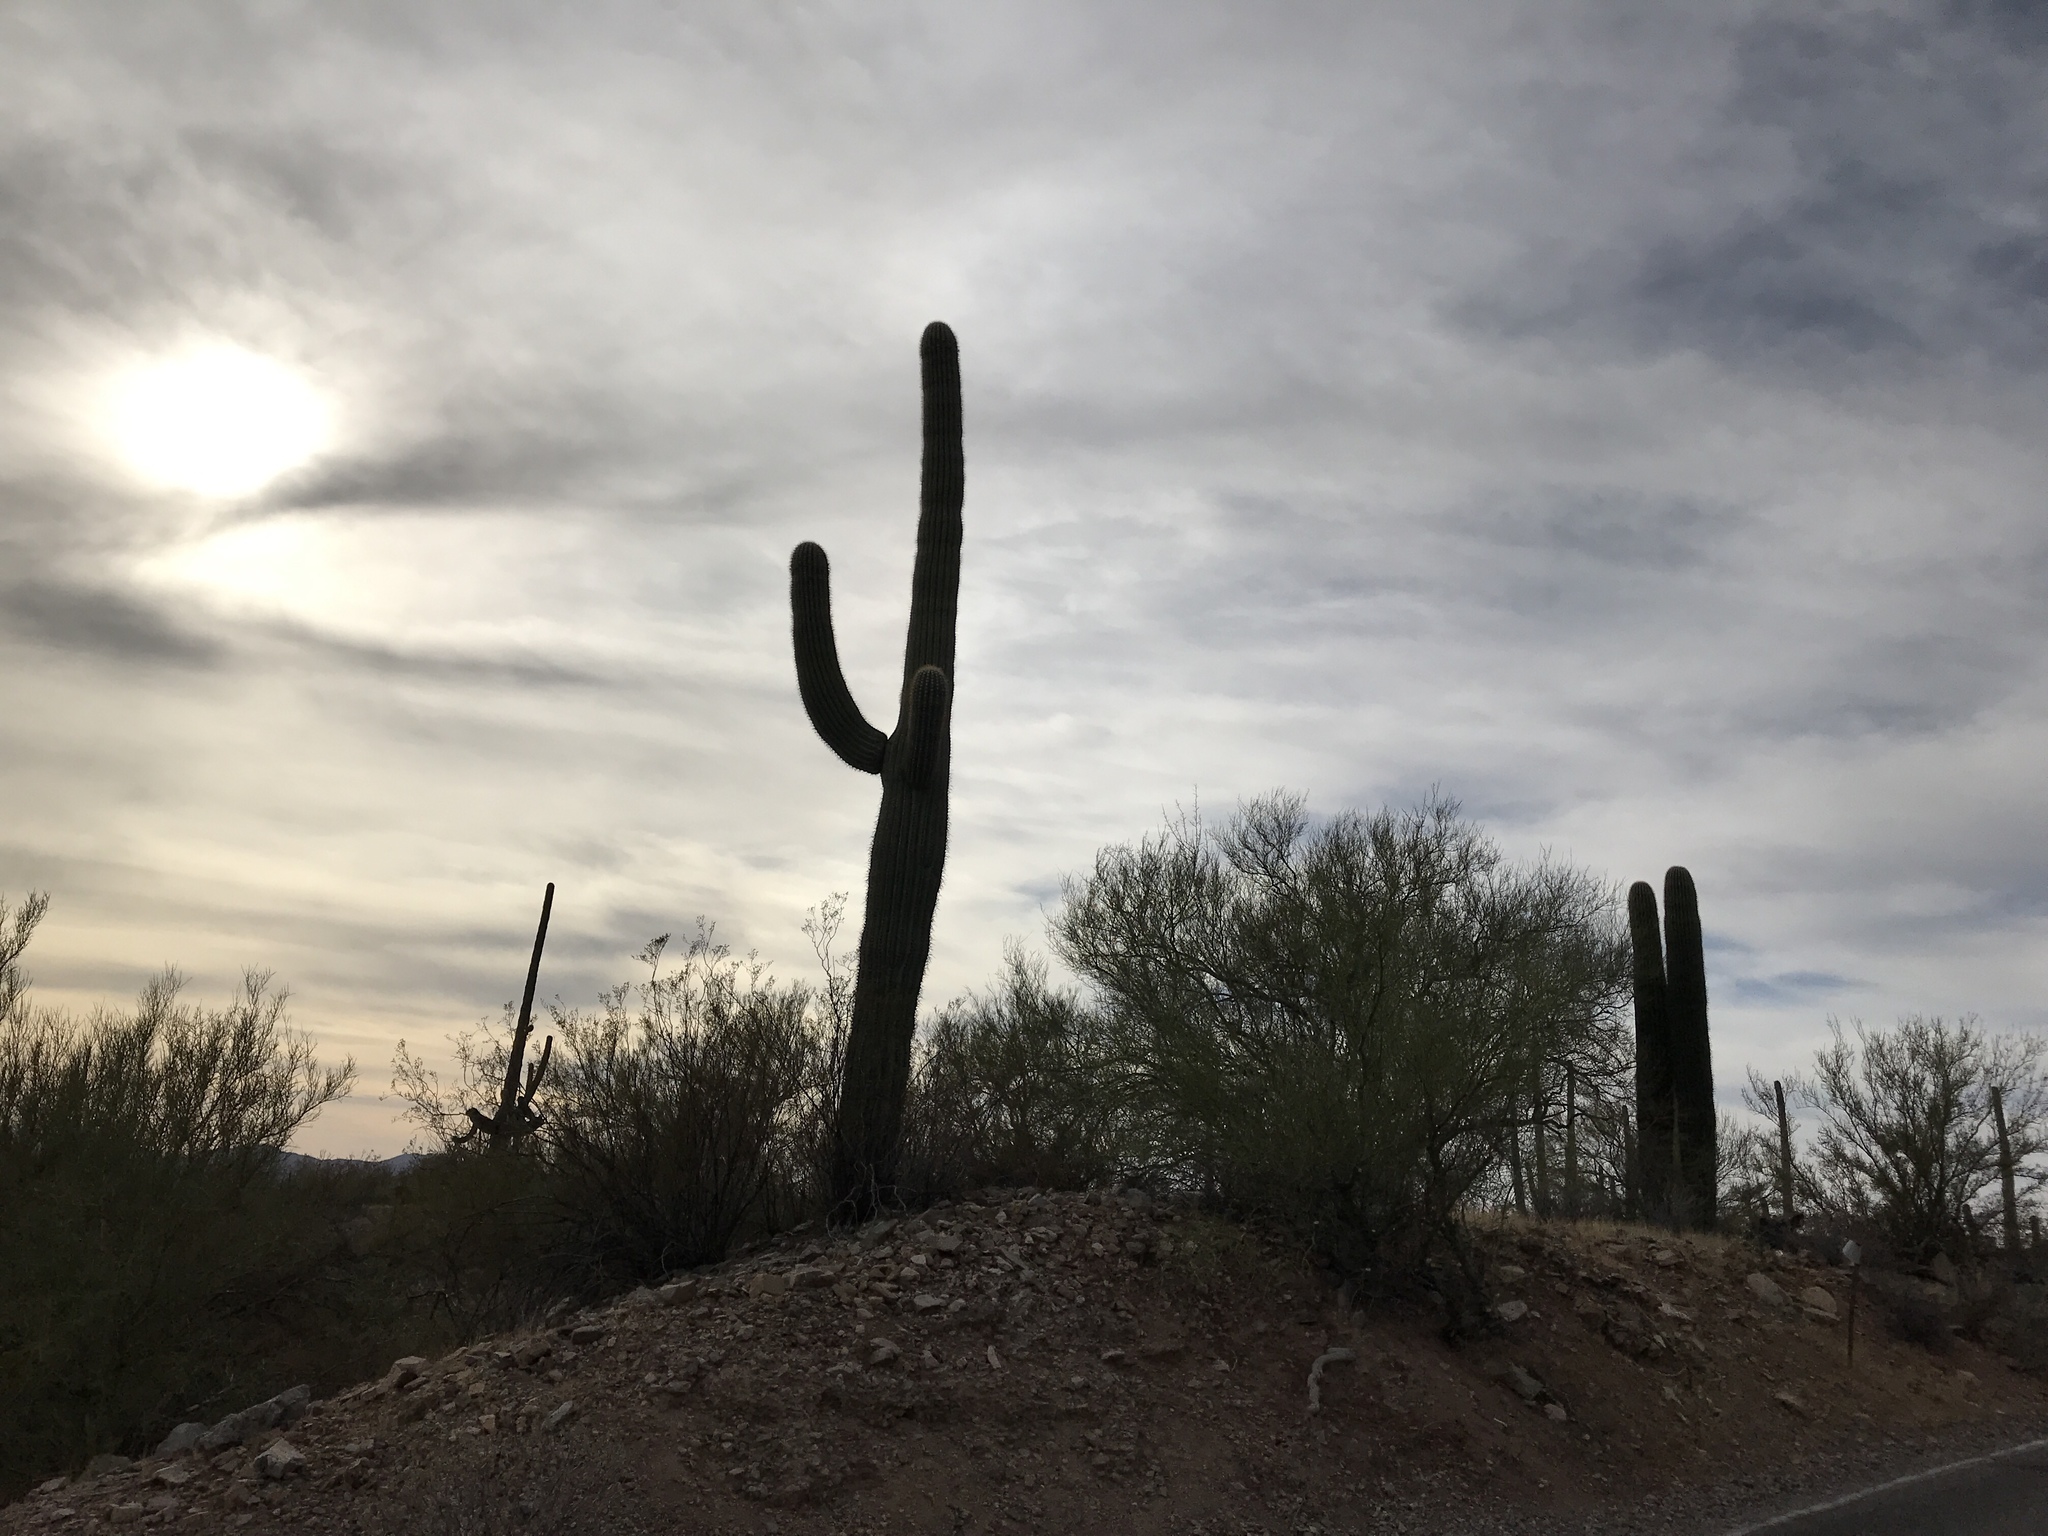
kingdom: Plantae
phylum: Tracheophyta
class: Magnoliopsida
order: Caryophyllales
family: Cactaceae
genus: Carnegiea
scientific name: Carnegiea gigantea
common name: Saguaro
